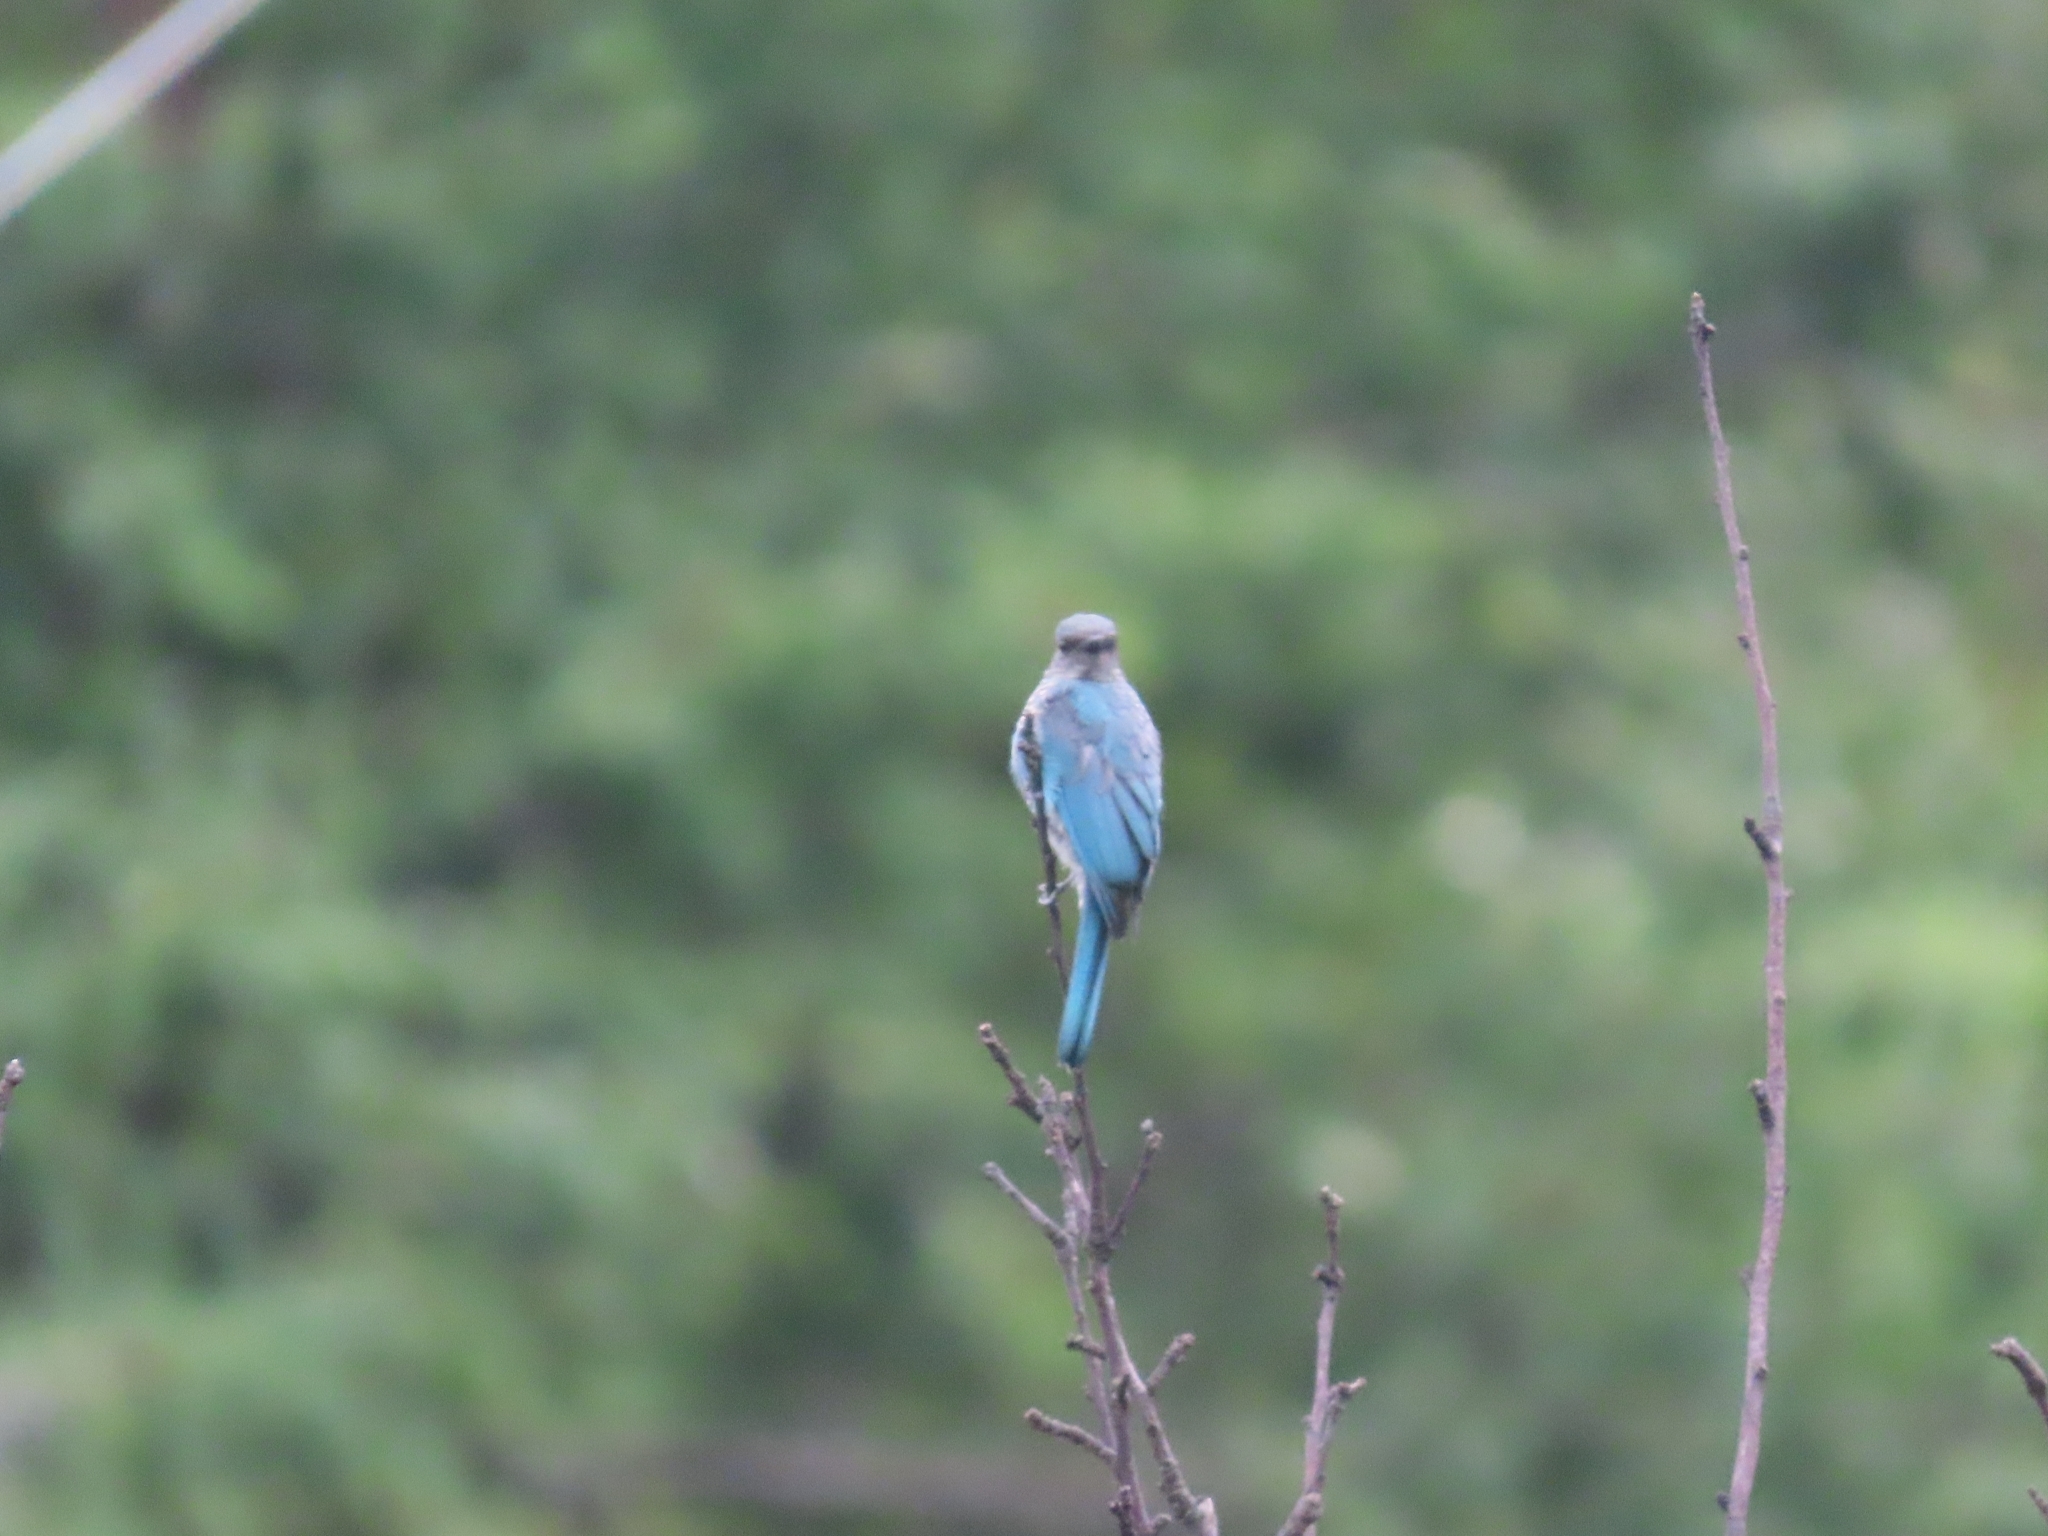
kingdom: Animalia
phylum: Chordata
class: Aves
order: Passeriformes
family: Muscicapidae
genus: Eumyias
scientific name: Eumyias thalassinus
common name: Verditer flycatcher
